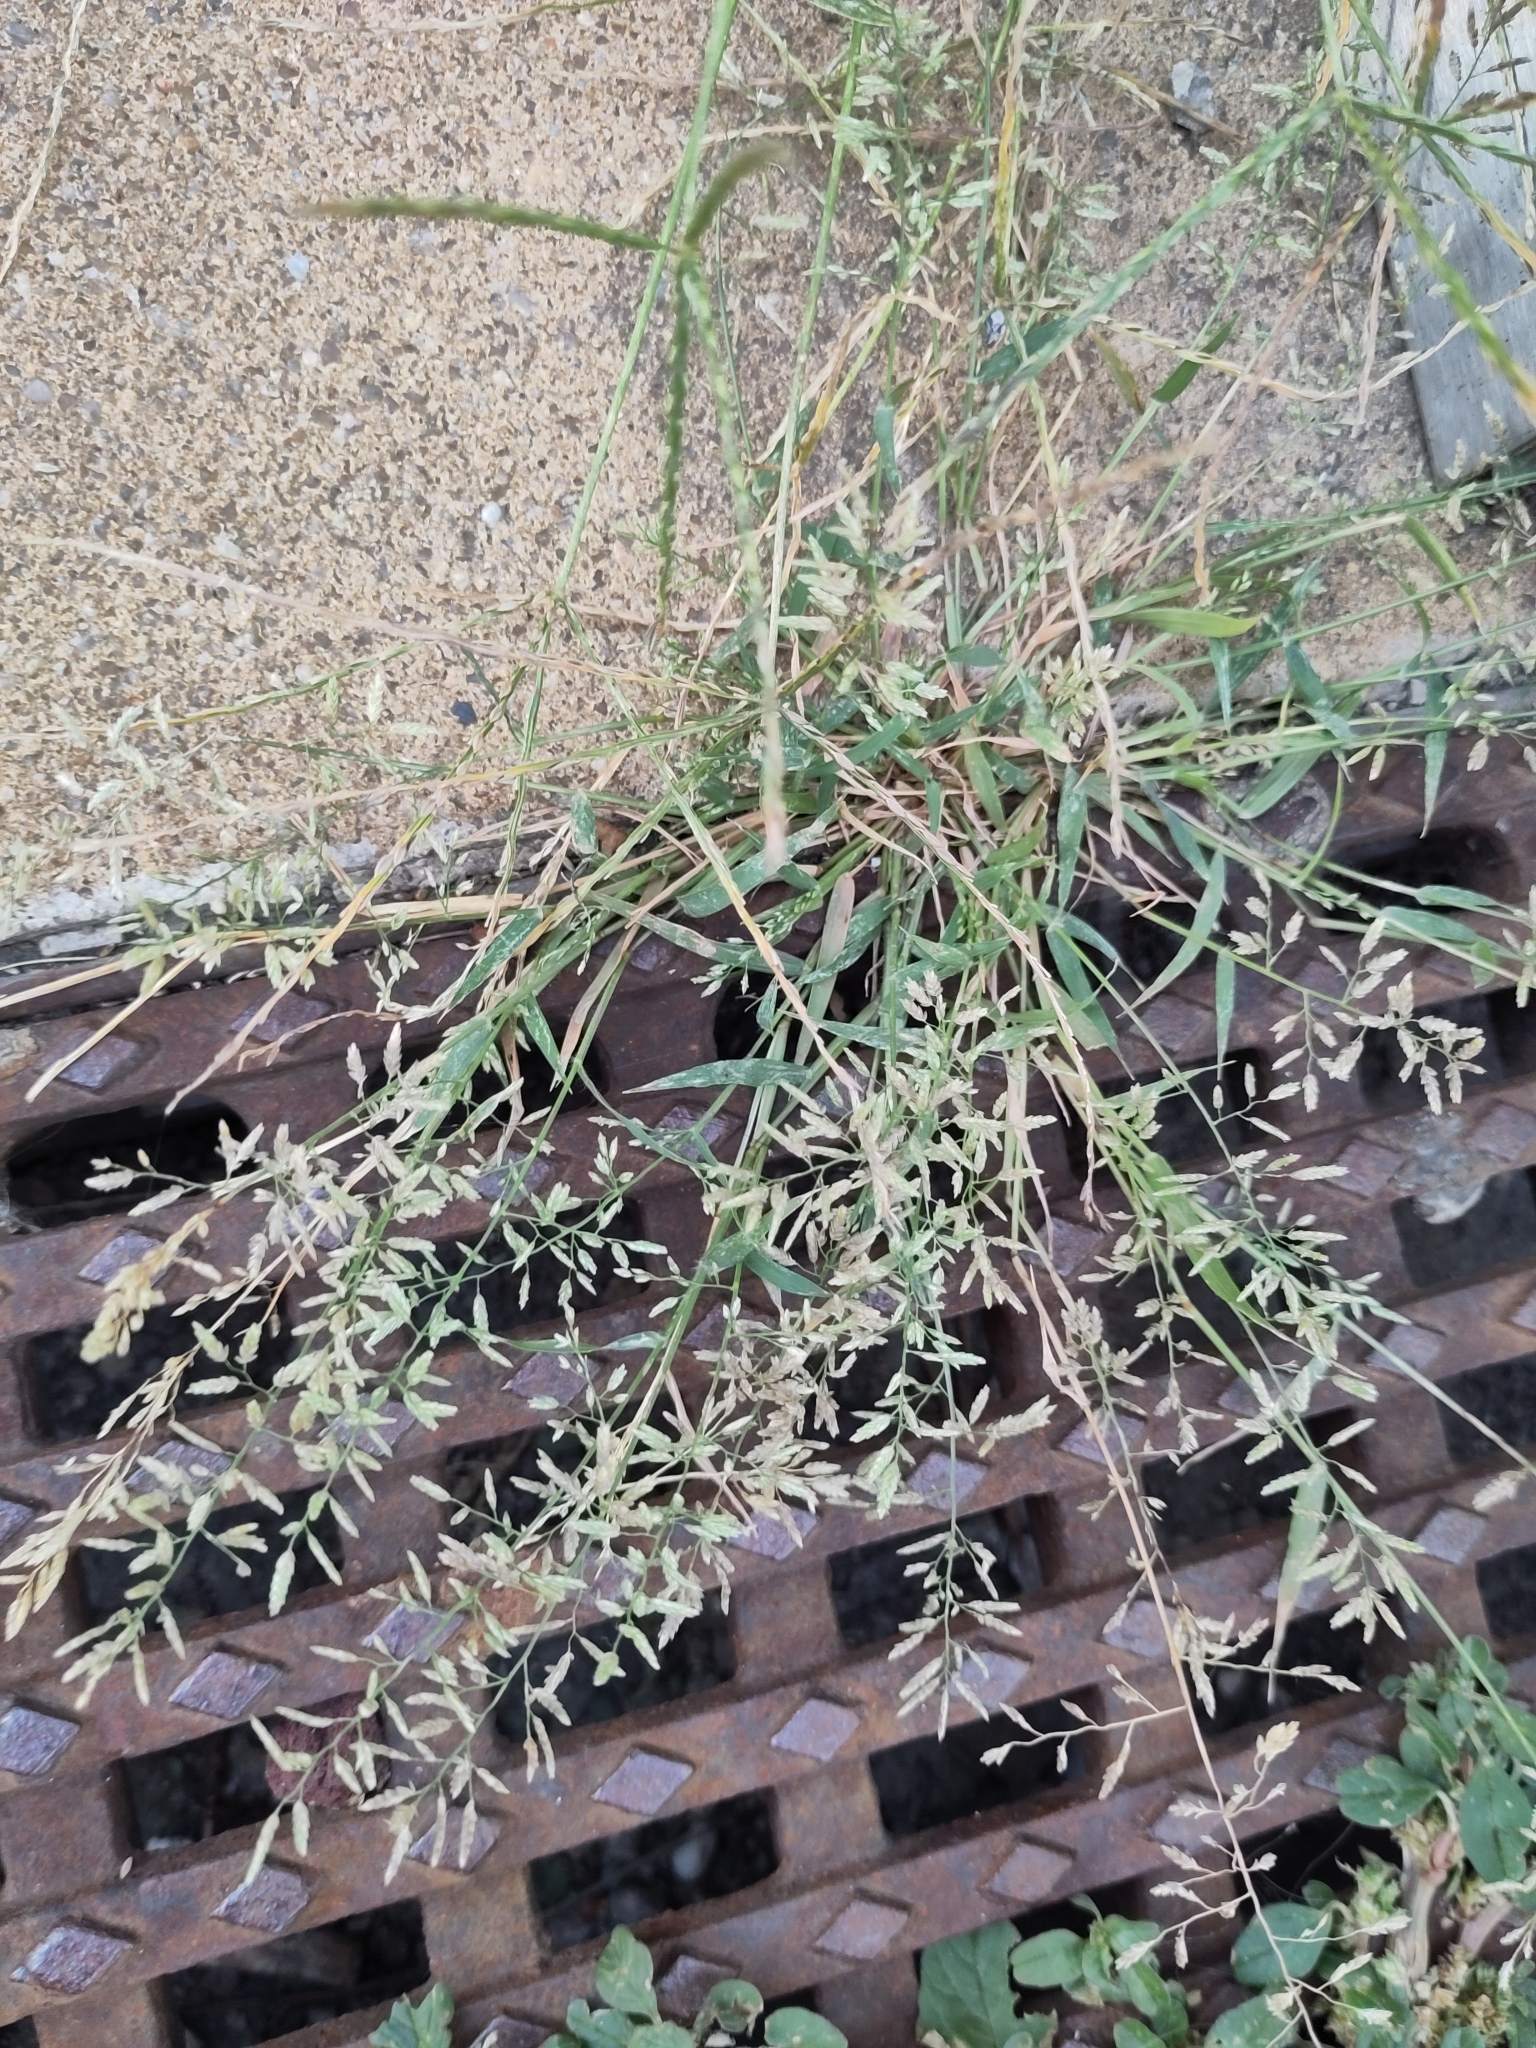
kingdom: Plantae
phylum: Tracheophyta
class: Liliopsida
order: Poales
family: Poaceae
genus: Eragrostis
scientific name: Eragrostis minor
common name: Small love-grass
